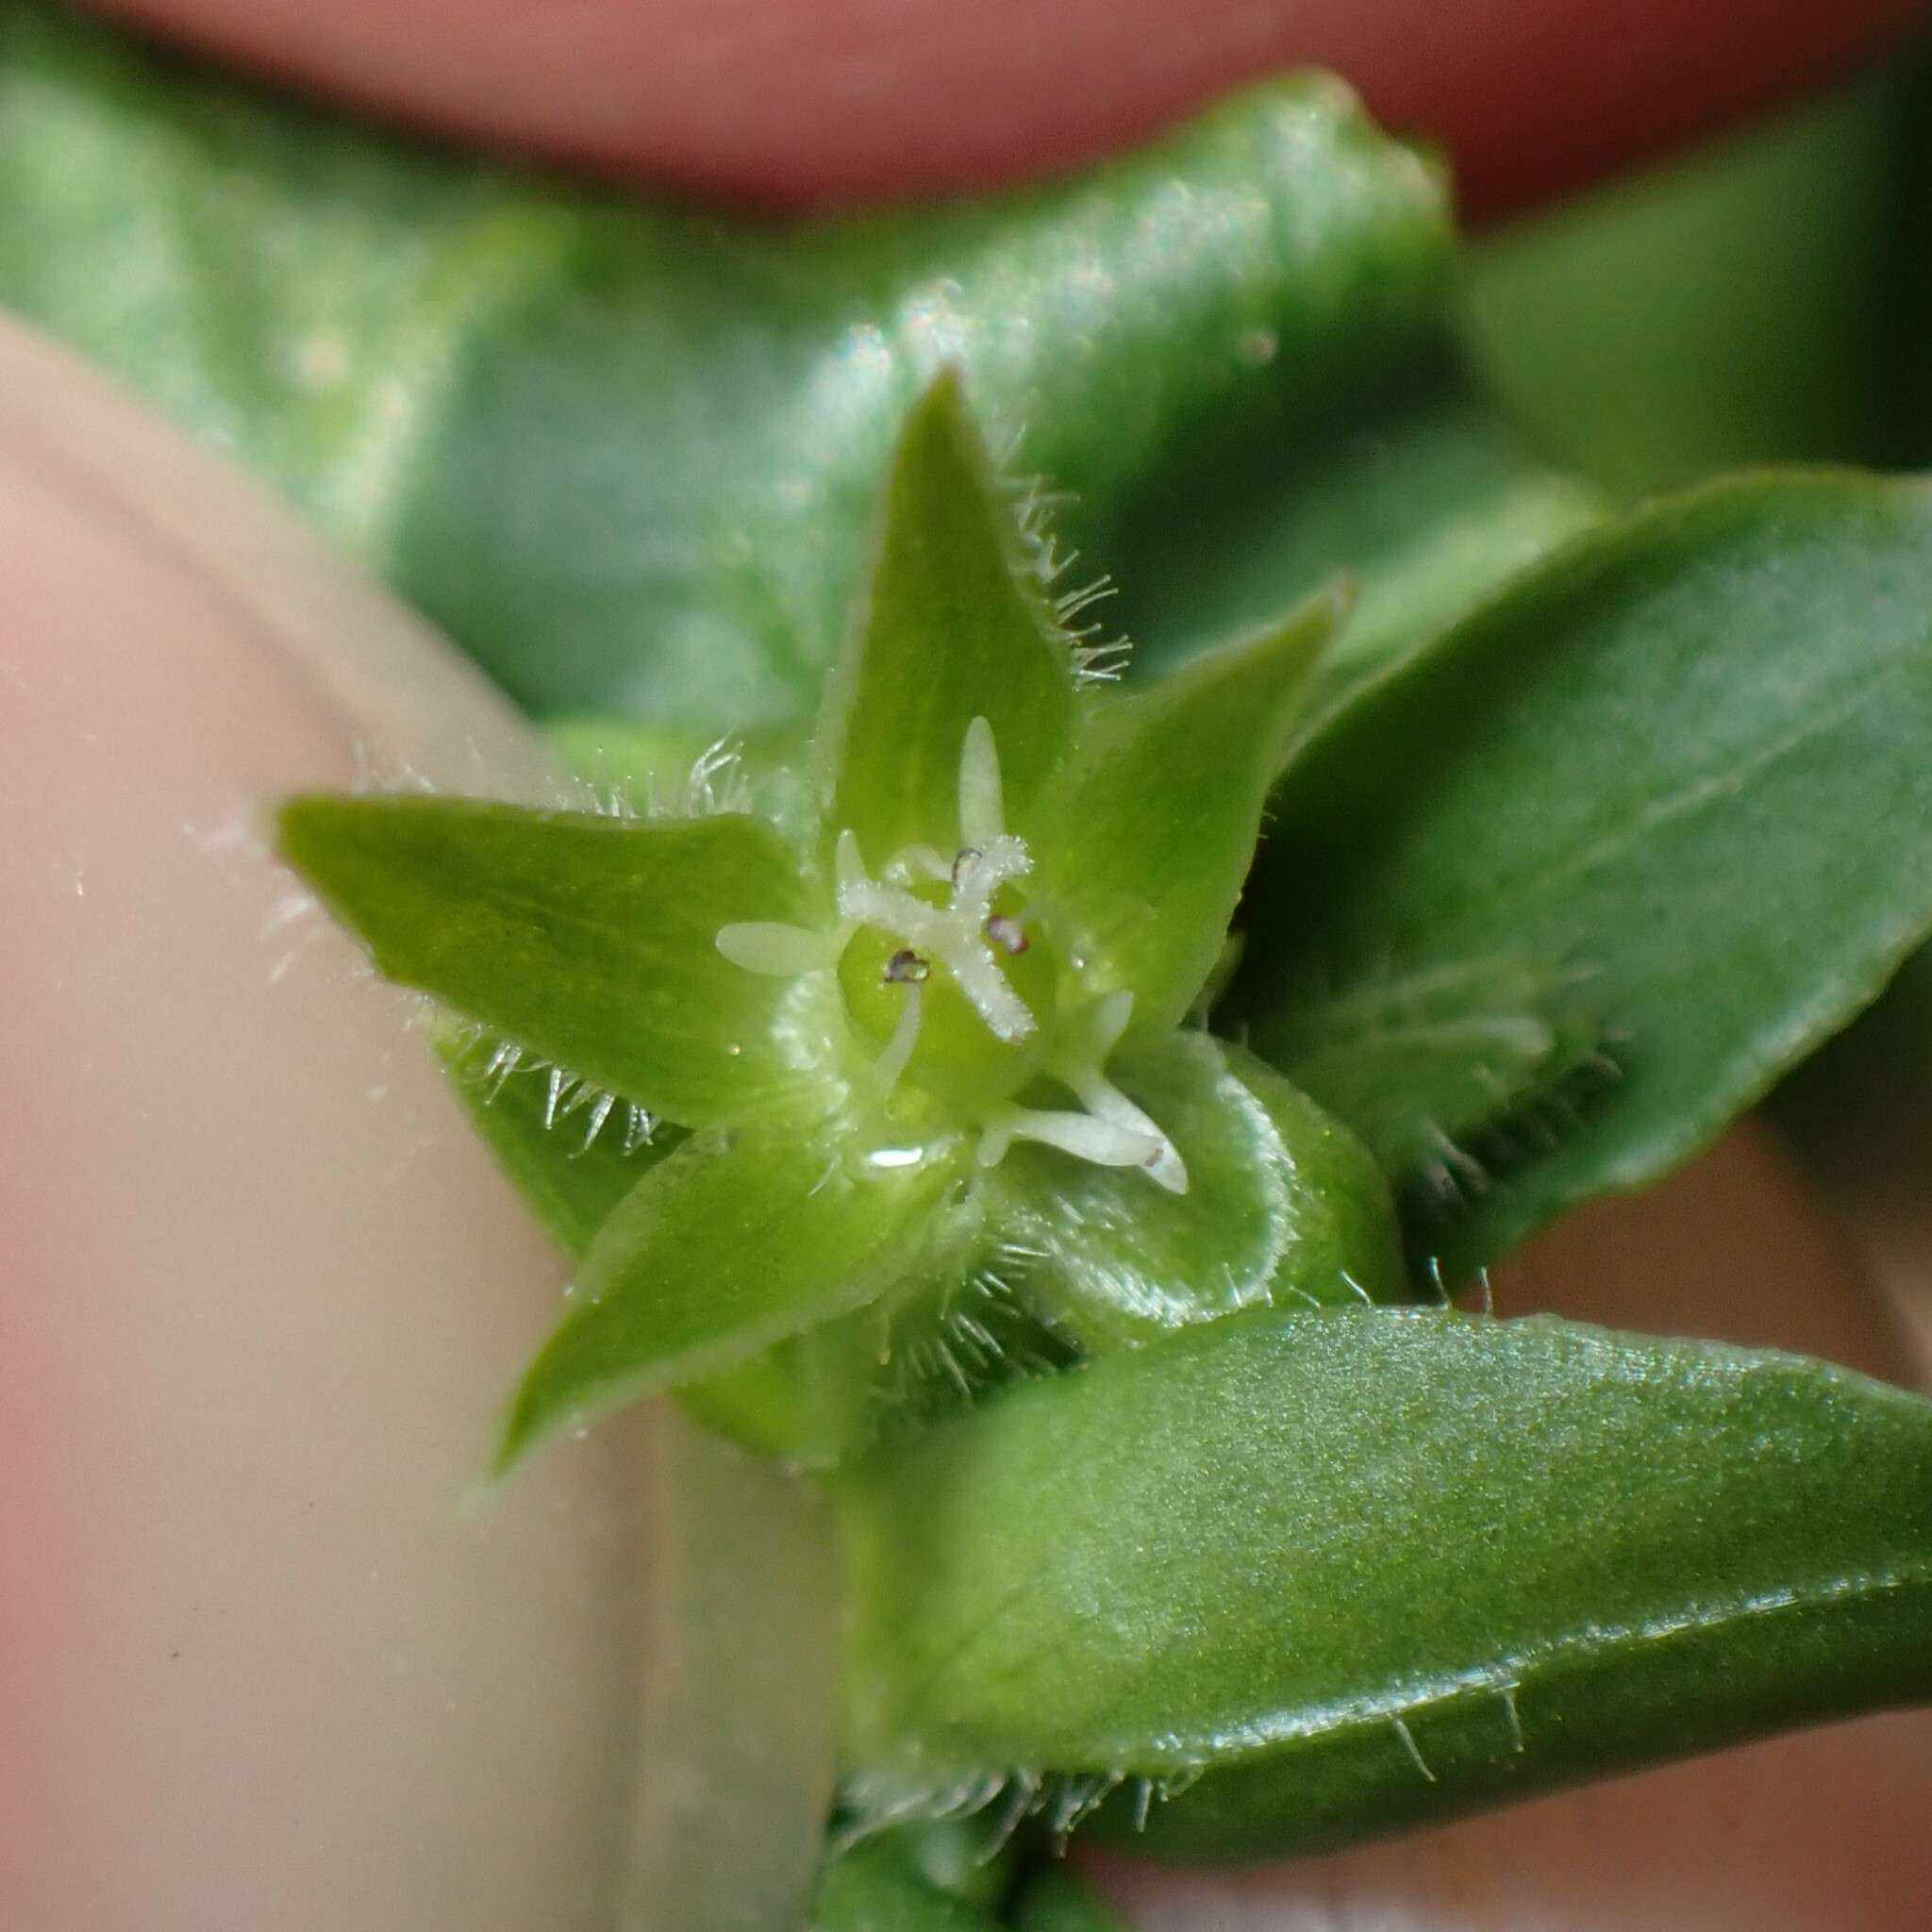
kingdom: Plantae
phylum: Tracheophyta
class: Magnoliopsida
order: Caryophyllales
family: Caryophyllaceae
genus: Stellaria
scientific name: Stellaria apetala
